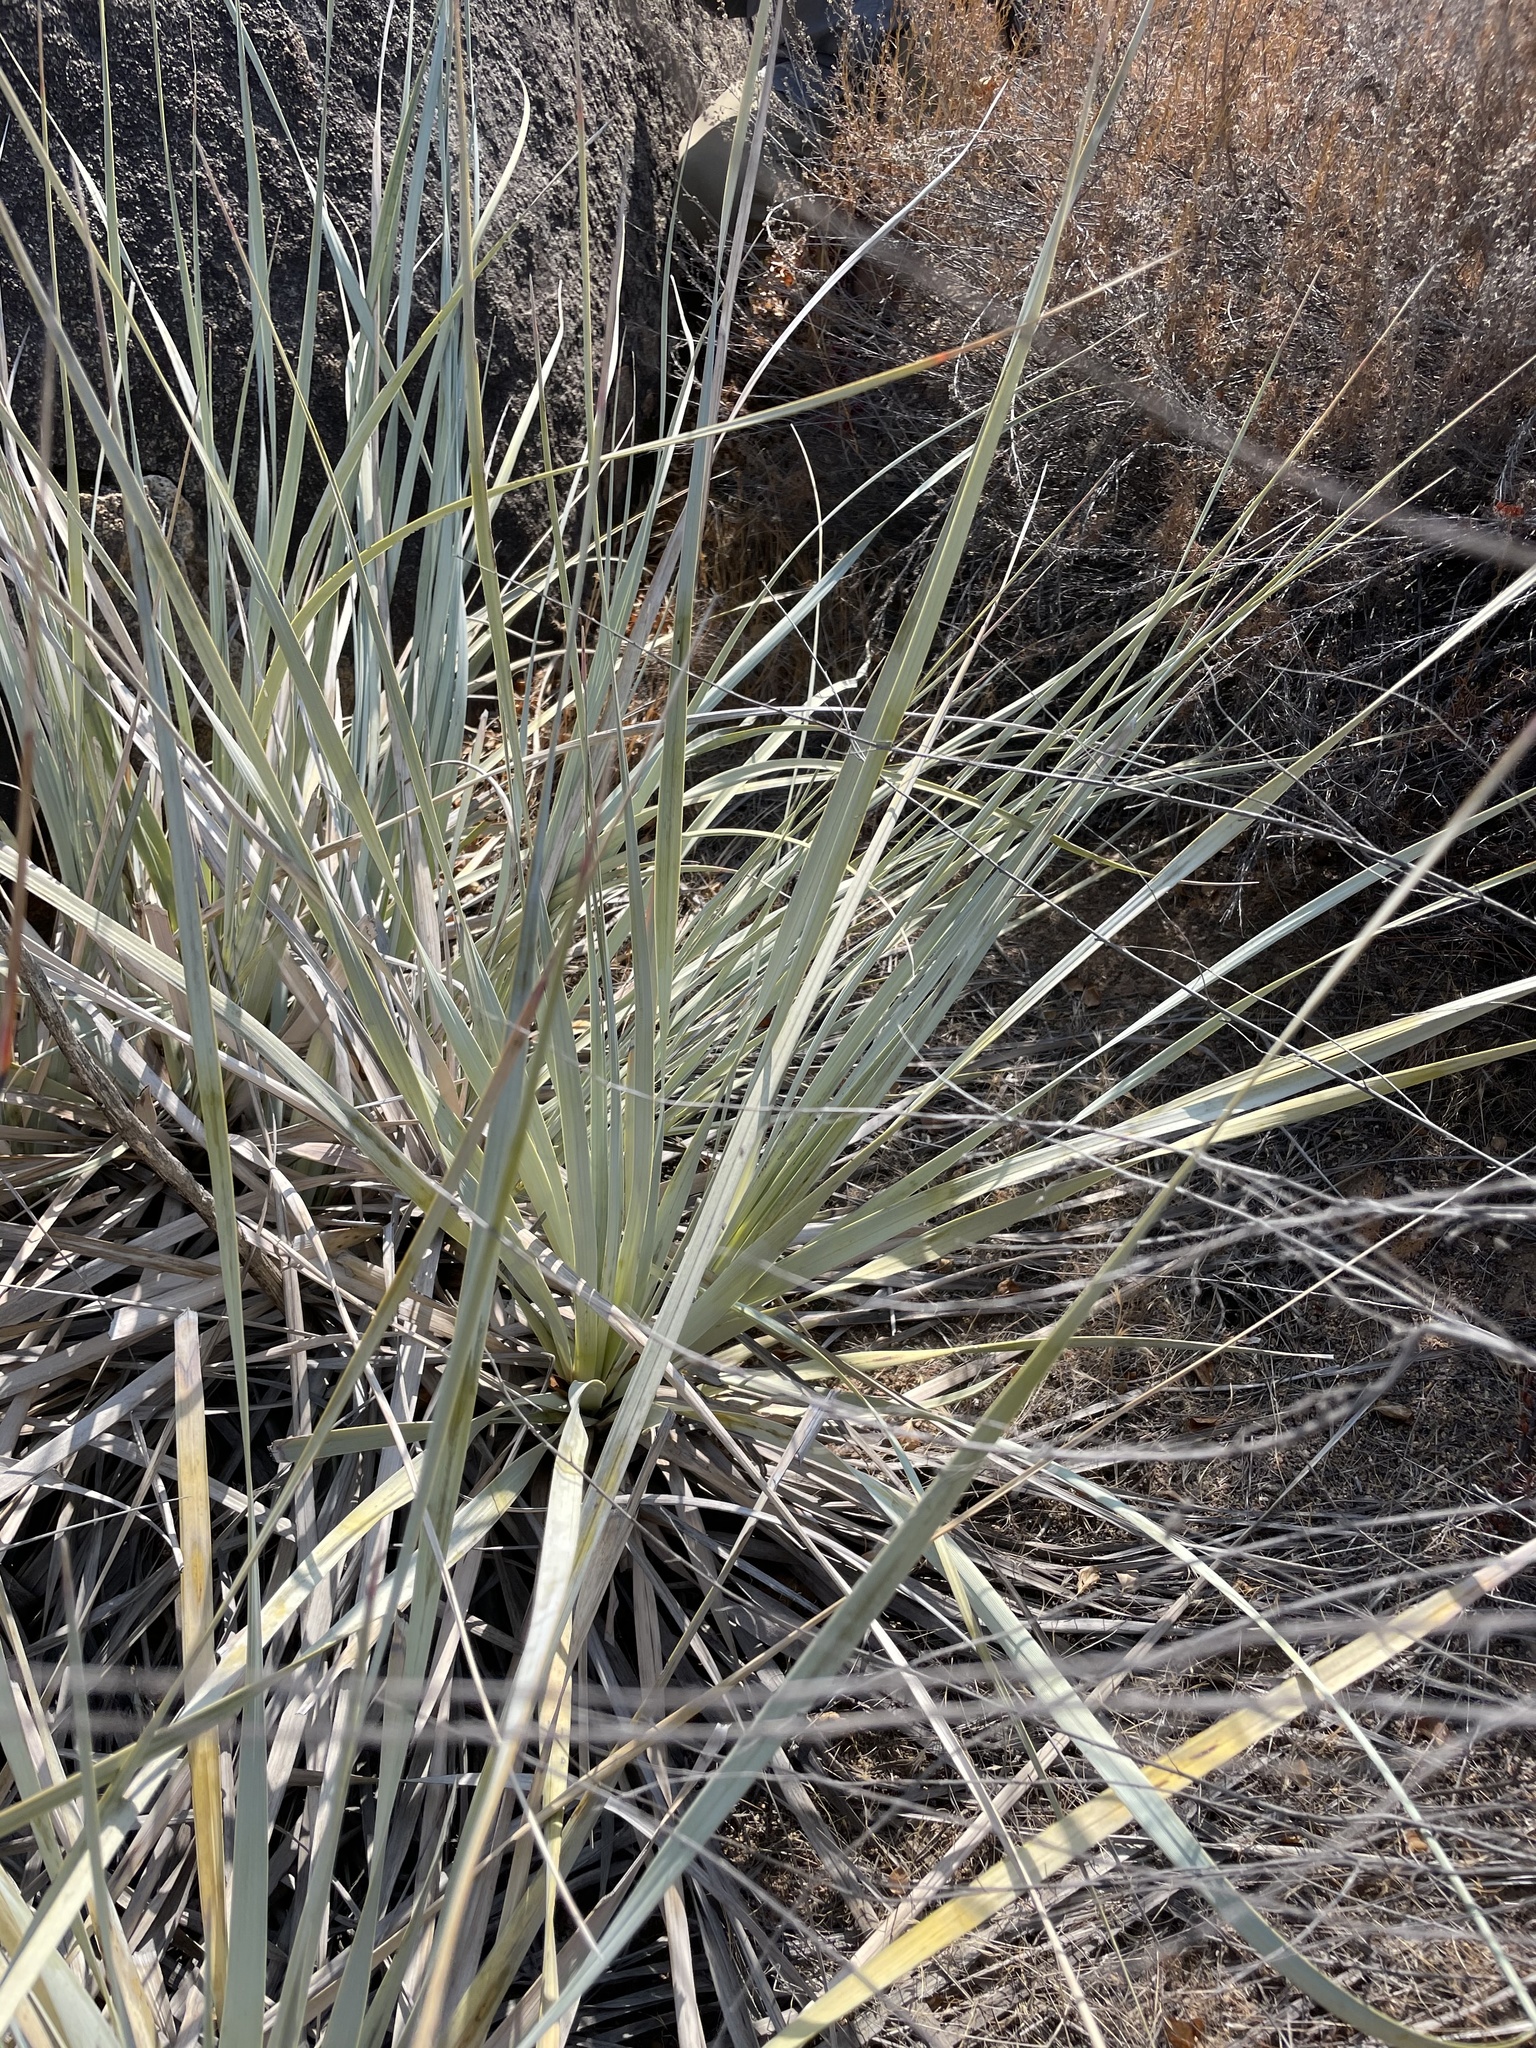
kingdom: Plantae
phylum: Tracheophyta
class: Liliopsida
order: Asparagales
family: Asparagaceae
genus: Nolina
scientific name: Nolina interrata
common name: Dehesa bear-grass
